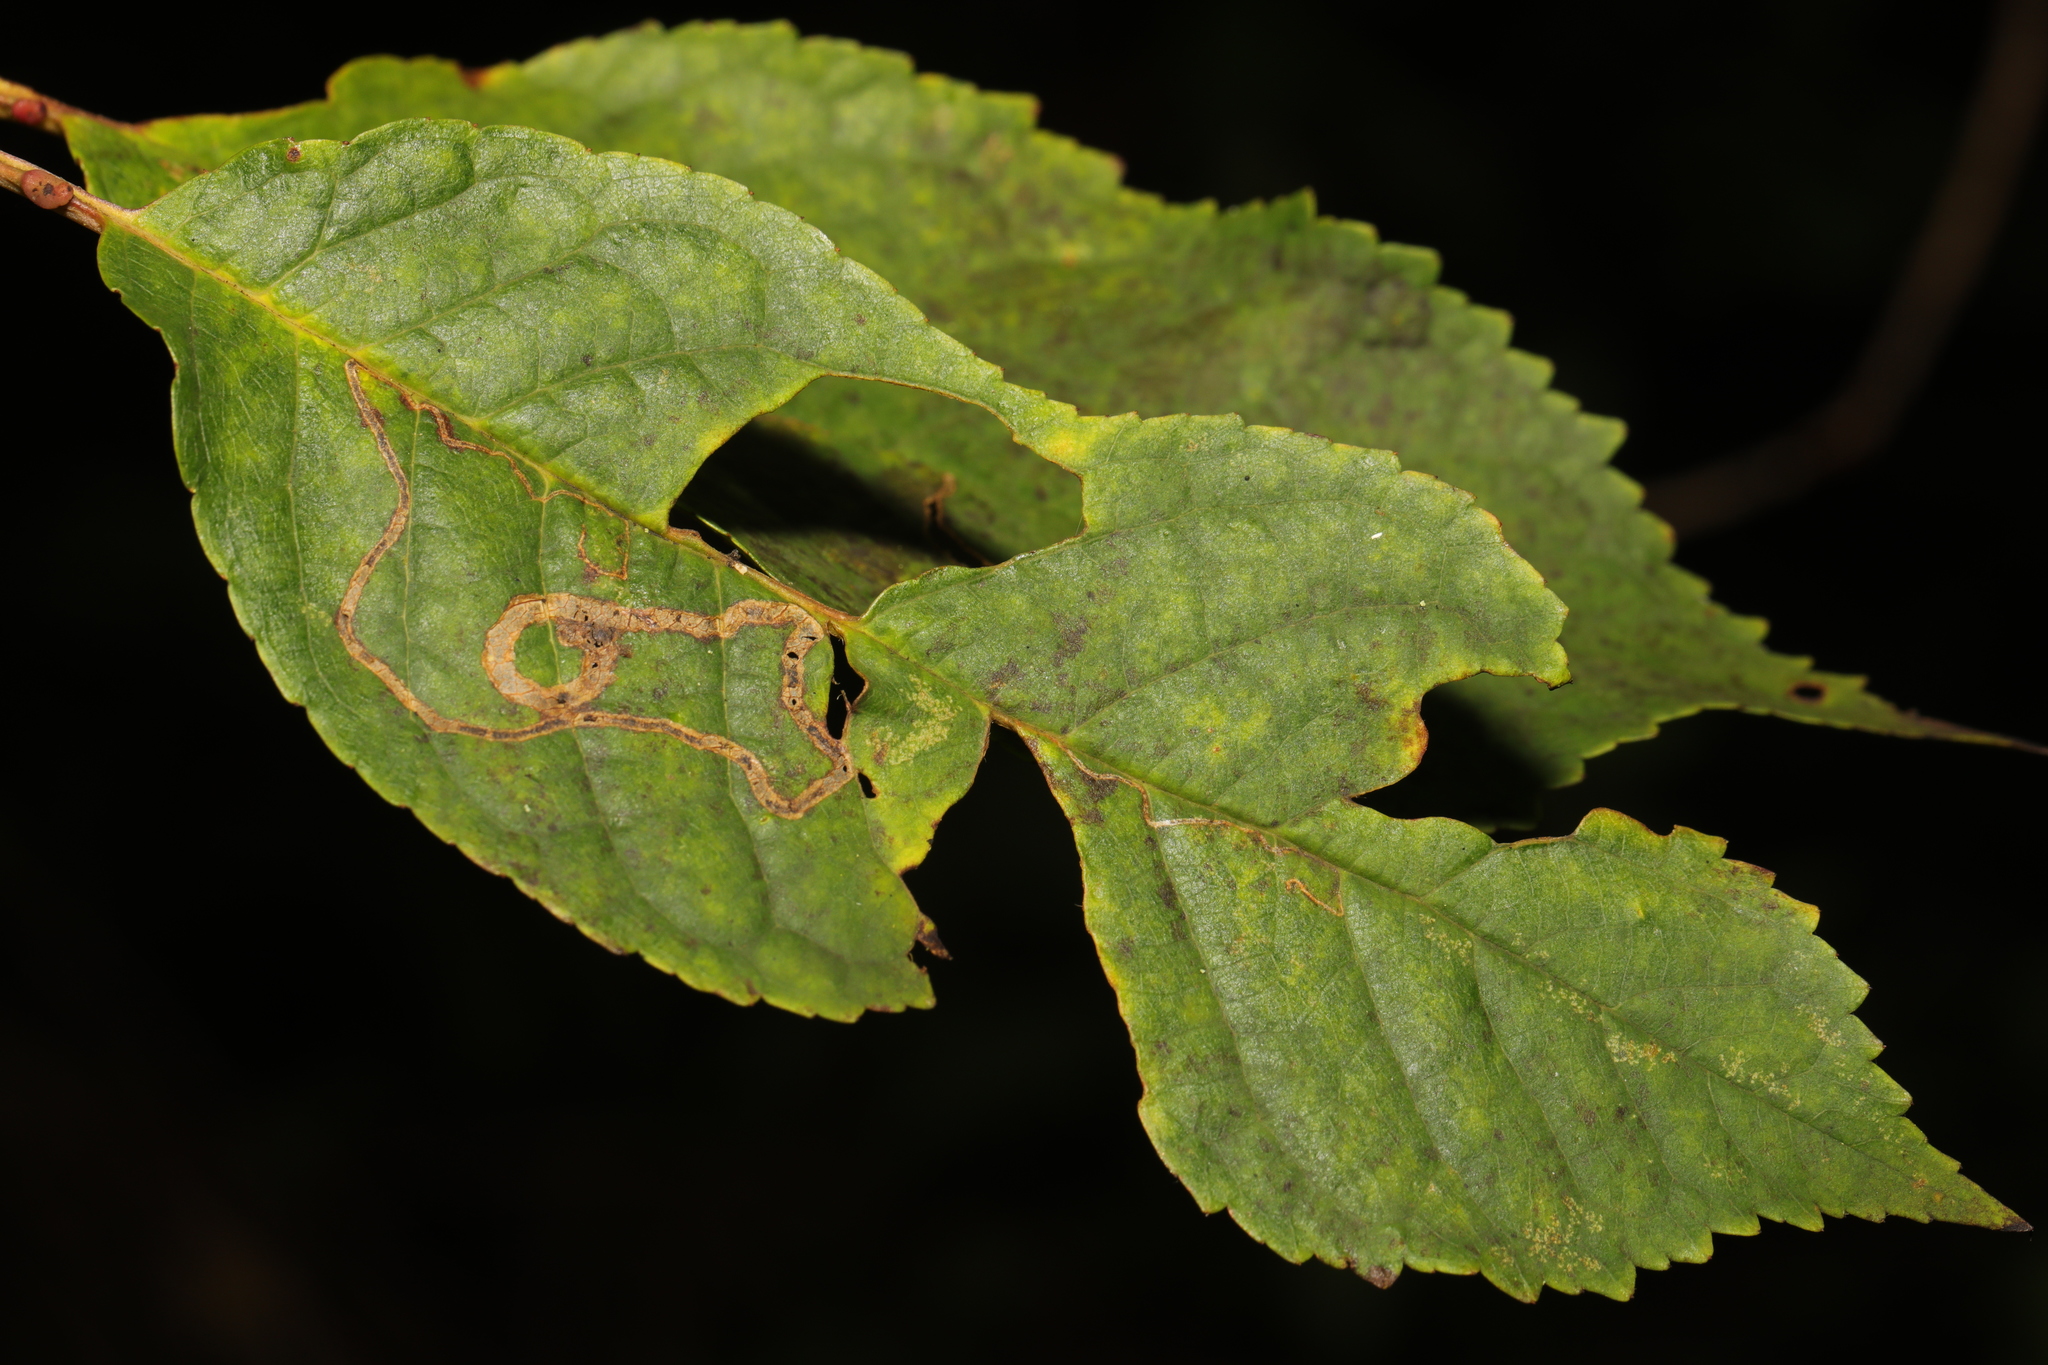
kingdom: Animalia
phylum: Arthropoda
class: Insecta
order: Lepidoptera
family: Lyonetiidae
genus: Lyonetia
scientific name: Lyonetia clerkella
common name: Apple leaf miner
